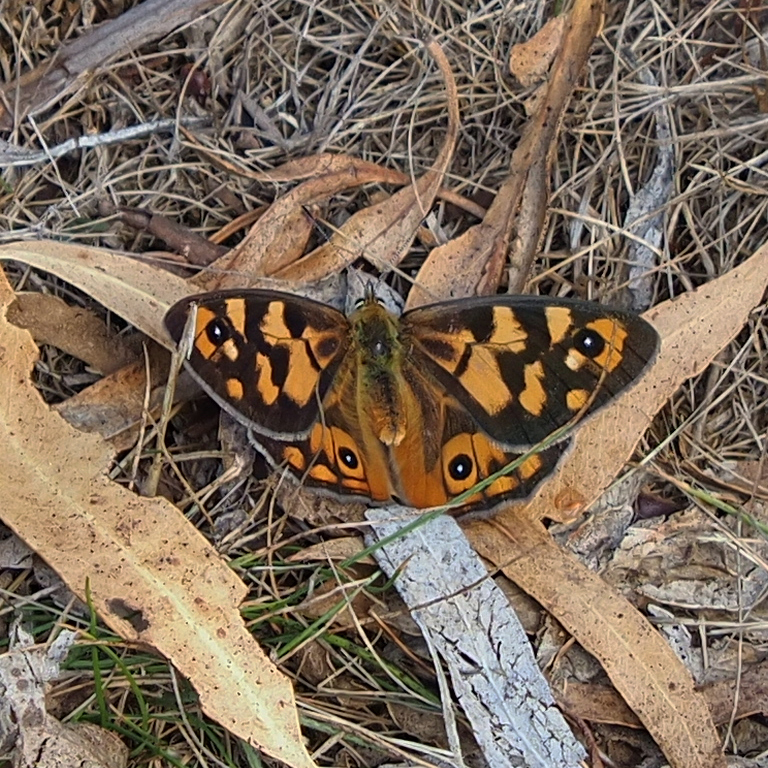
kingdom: Animalia
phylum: Arthropoda
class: Insecta
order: Lepidoptera
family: Nymphalidae
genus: Heteronympha
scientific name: Heteronympha penelope
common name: Shouldered brown
